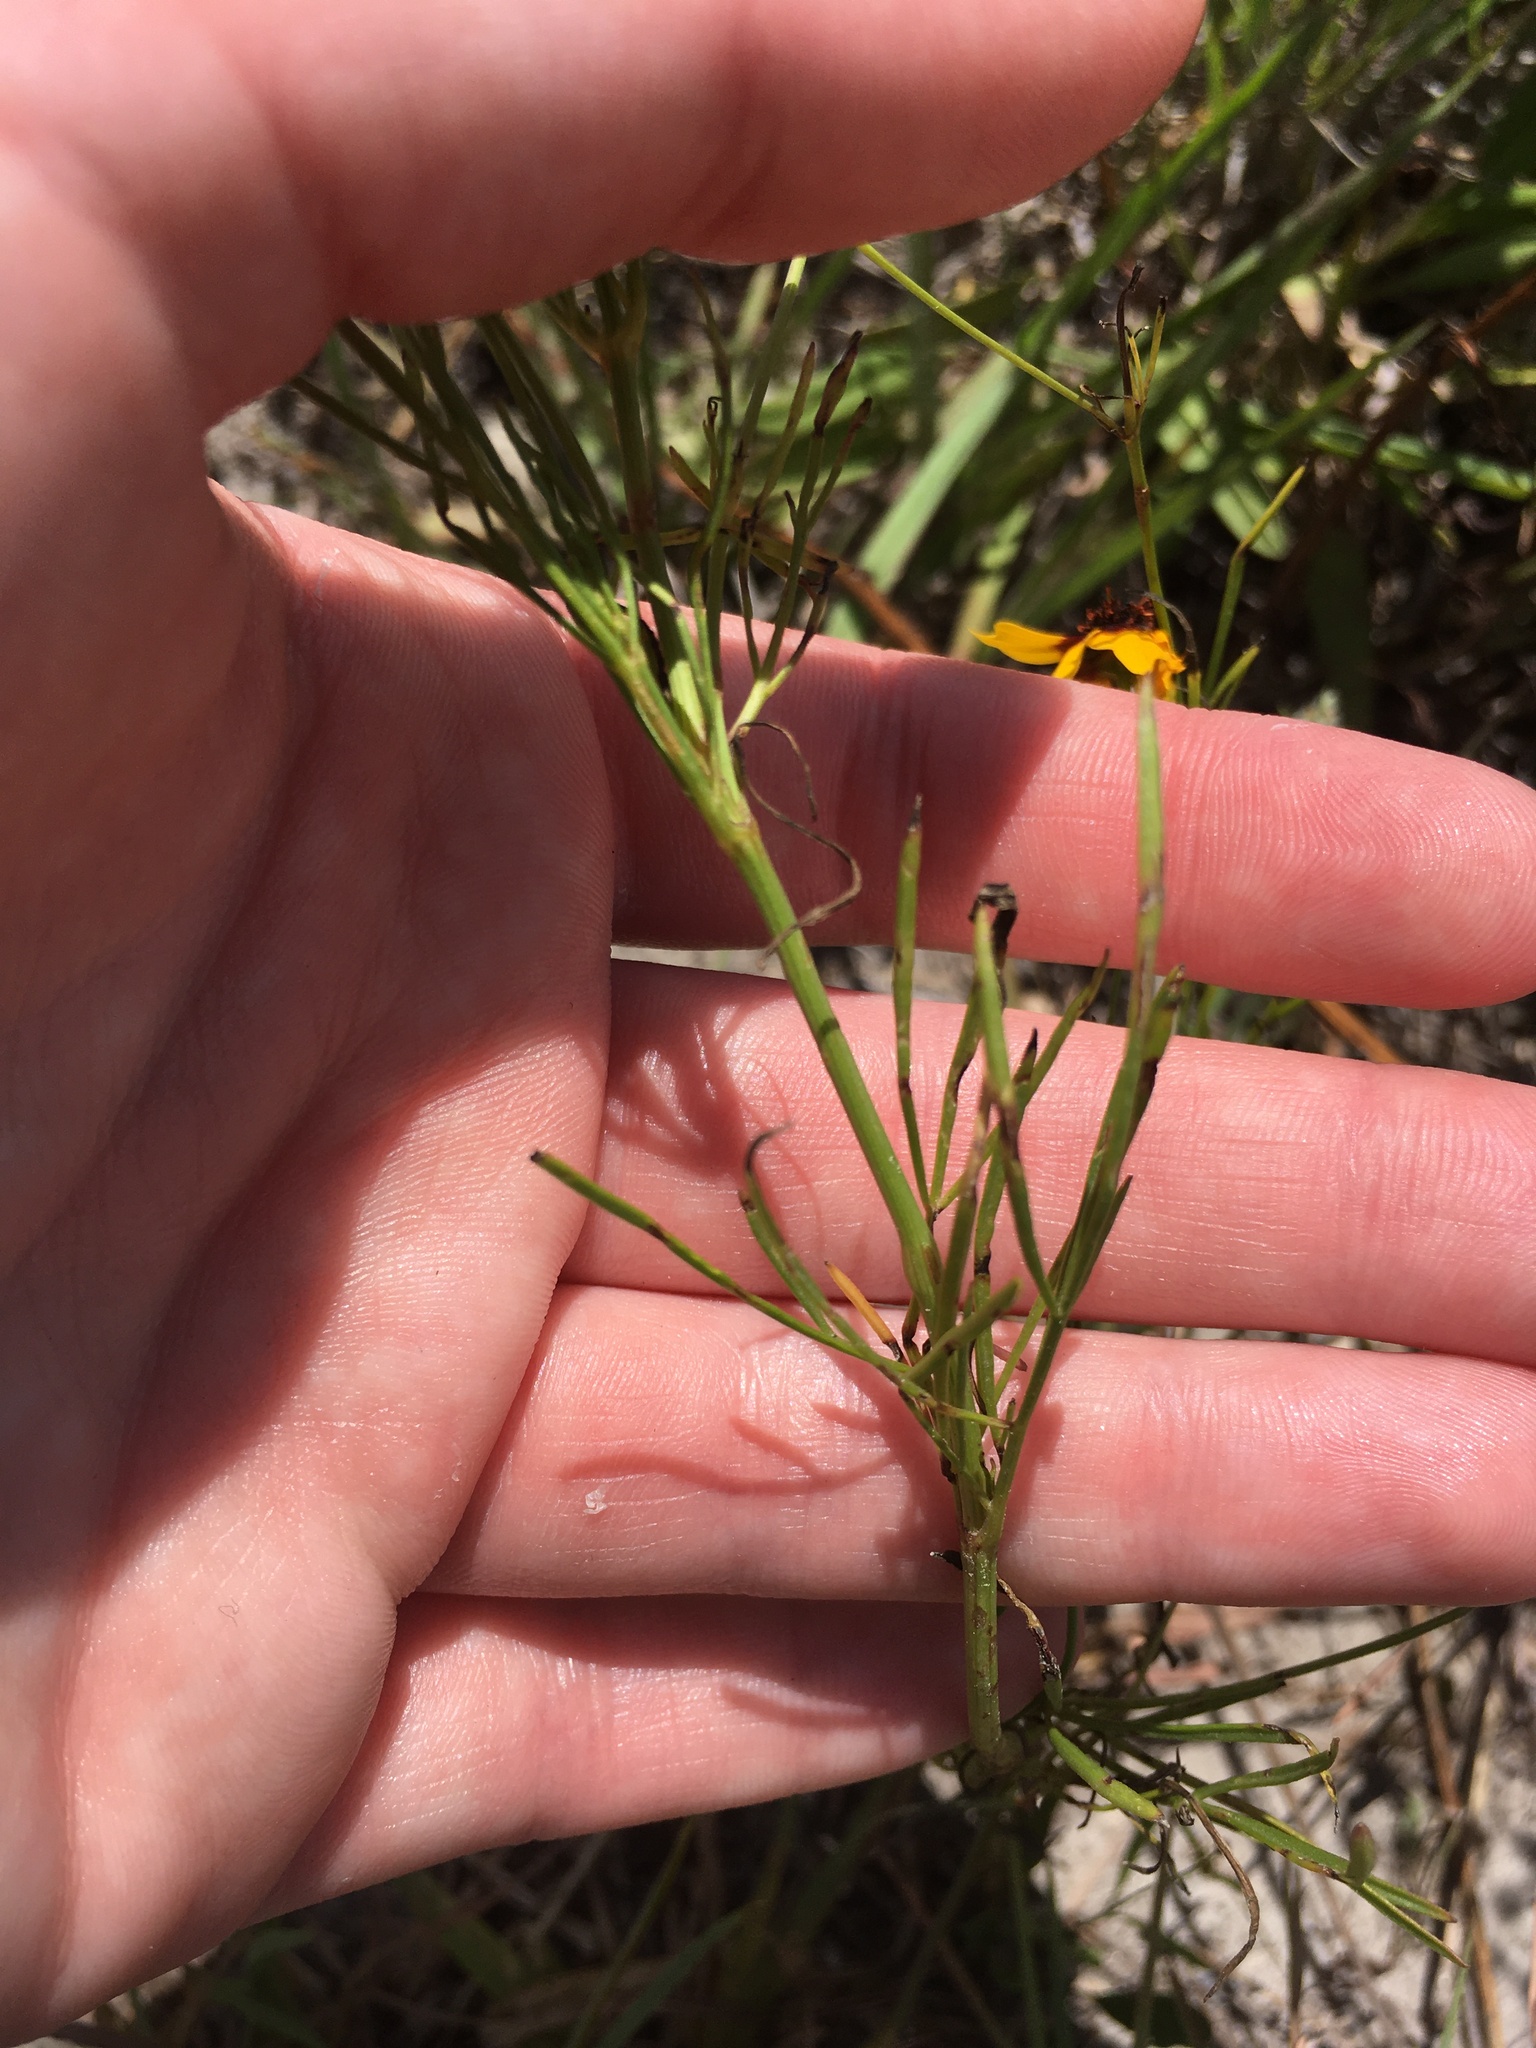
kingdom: Plantae
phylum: Tracheophyta
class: Magnoliopsida
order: Asterales
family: Asteraceae
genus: Coreopsis
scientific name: Coreopsis tinctoria
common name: Garden tickseed
